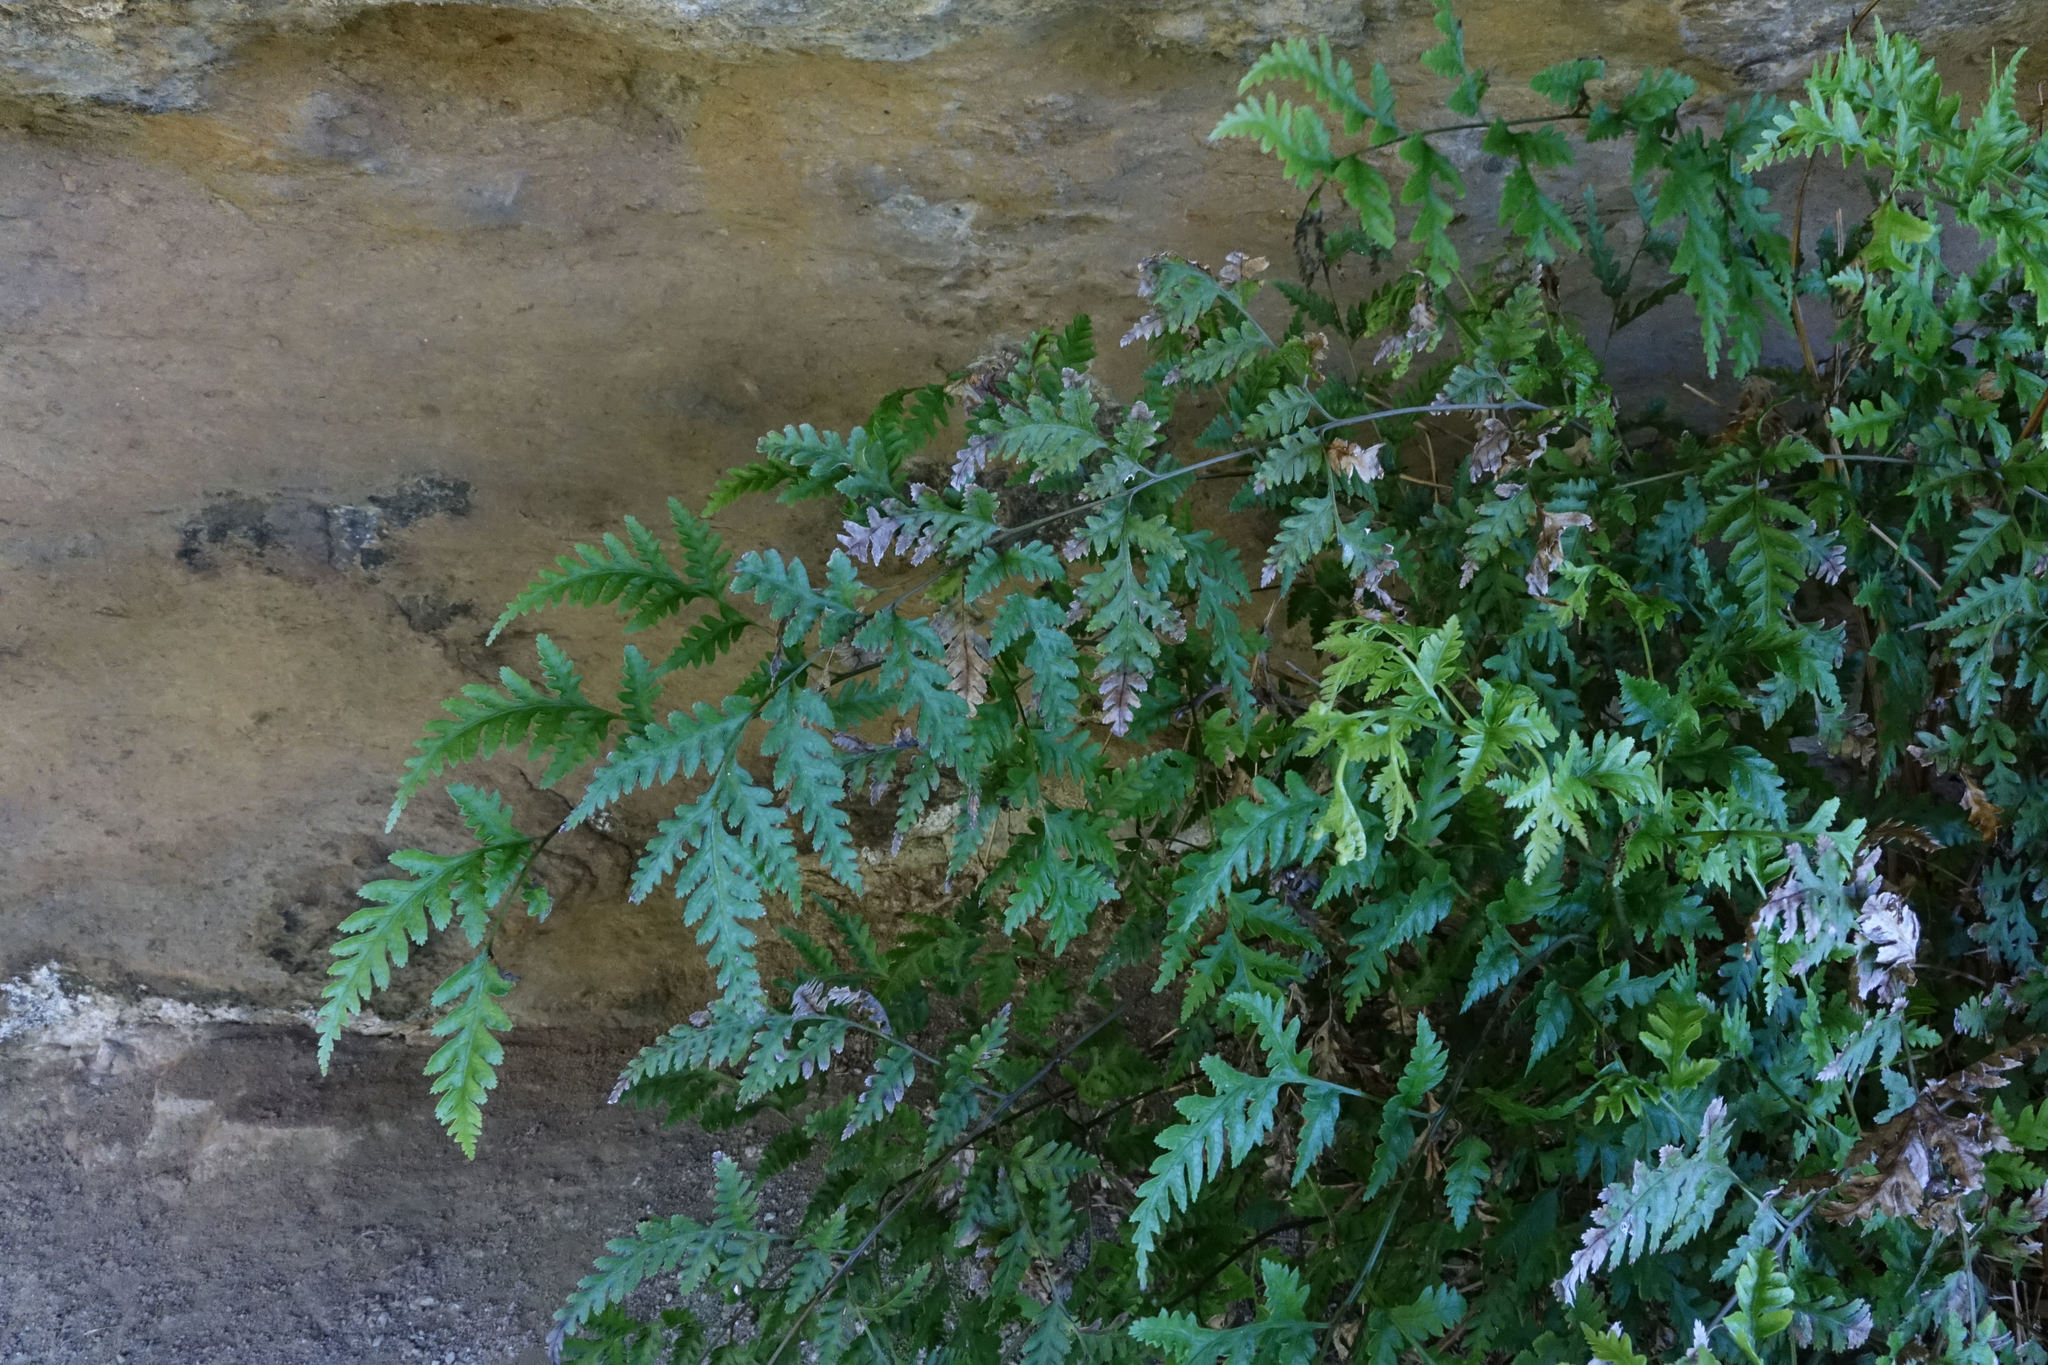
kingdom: Plantae
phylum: Tracheophyta
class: Polypodiopsida
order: Polypodiales
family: Pteridaceae
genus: Pteris
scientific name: Pteris macilenta
